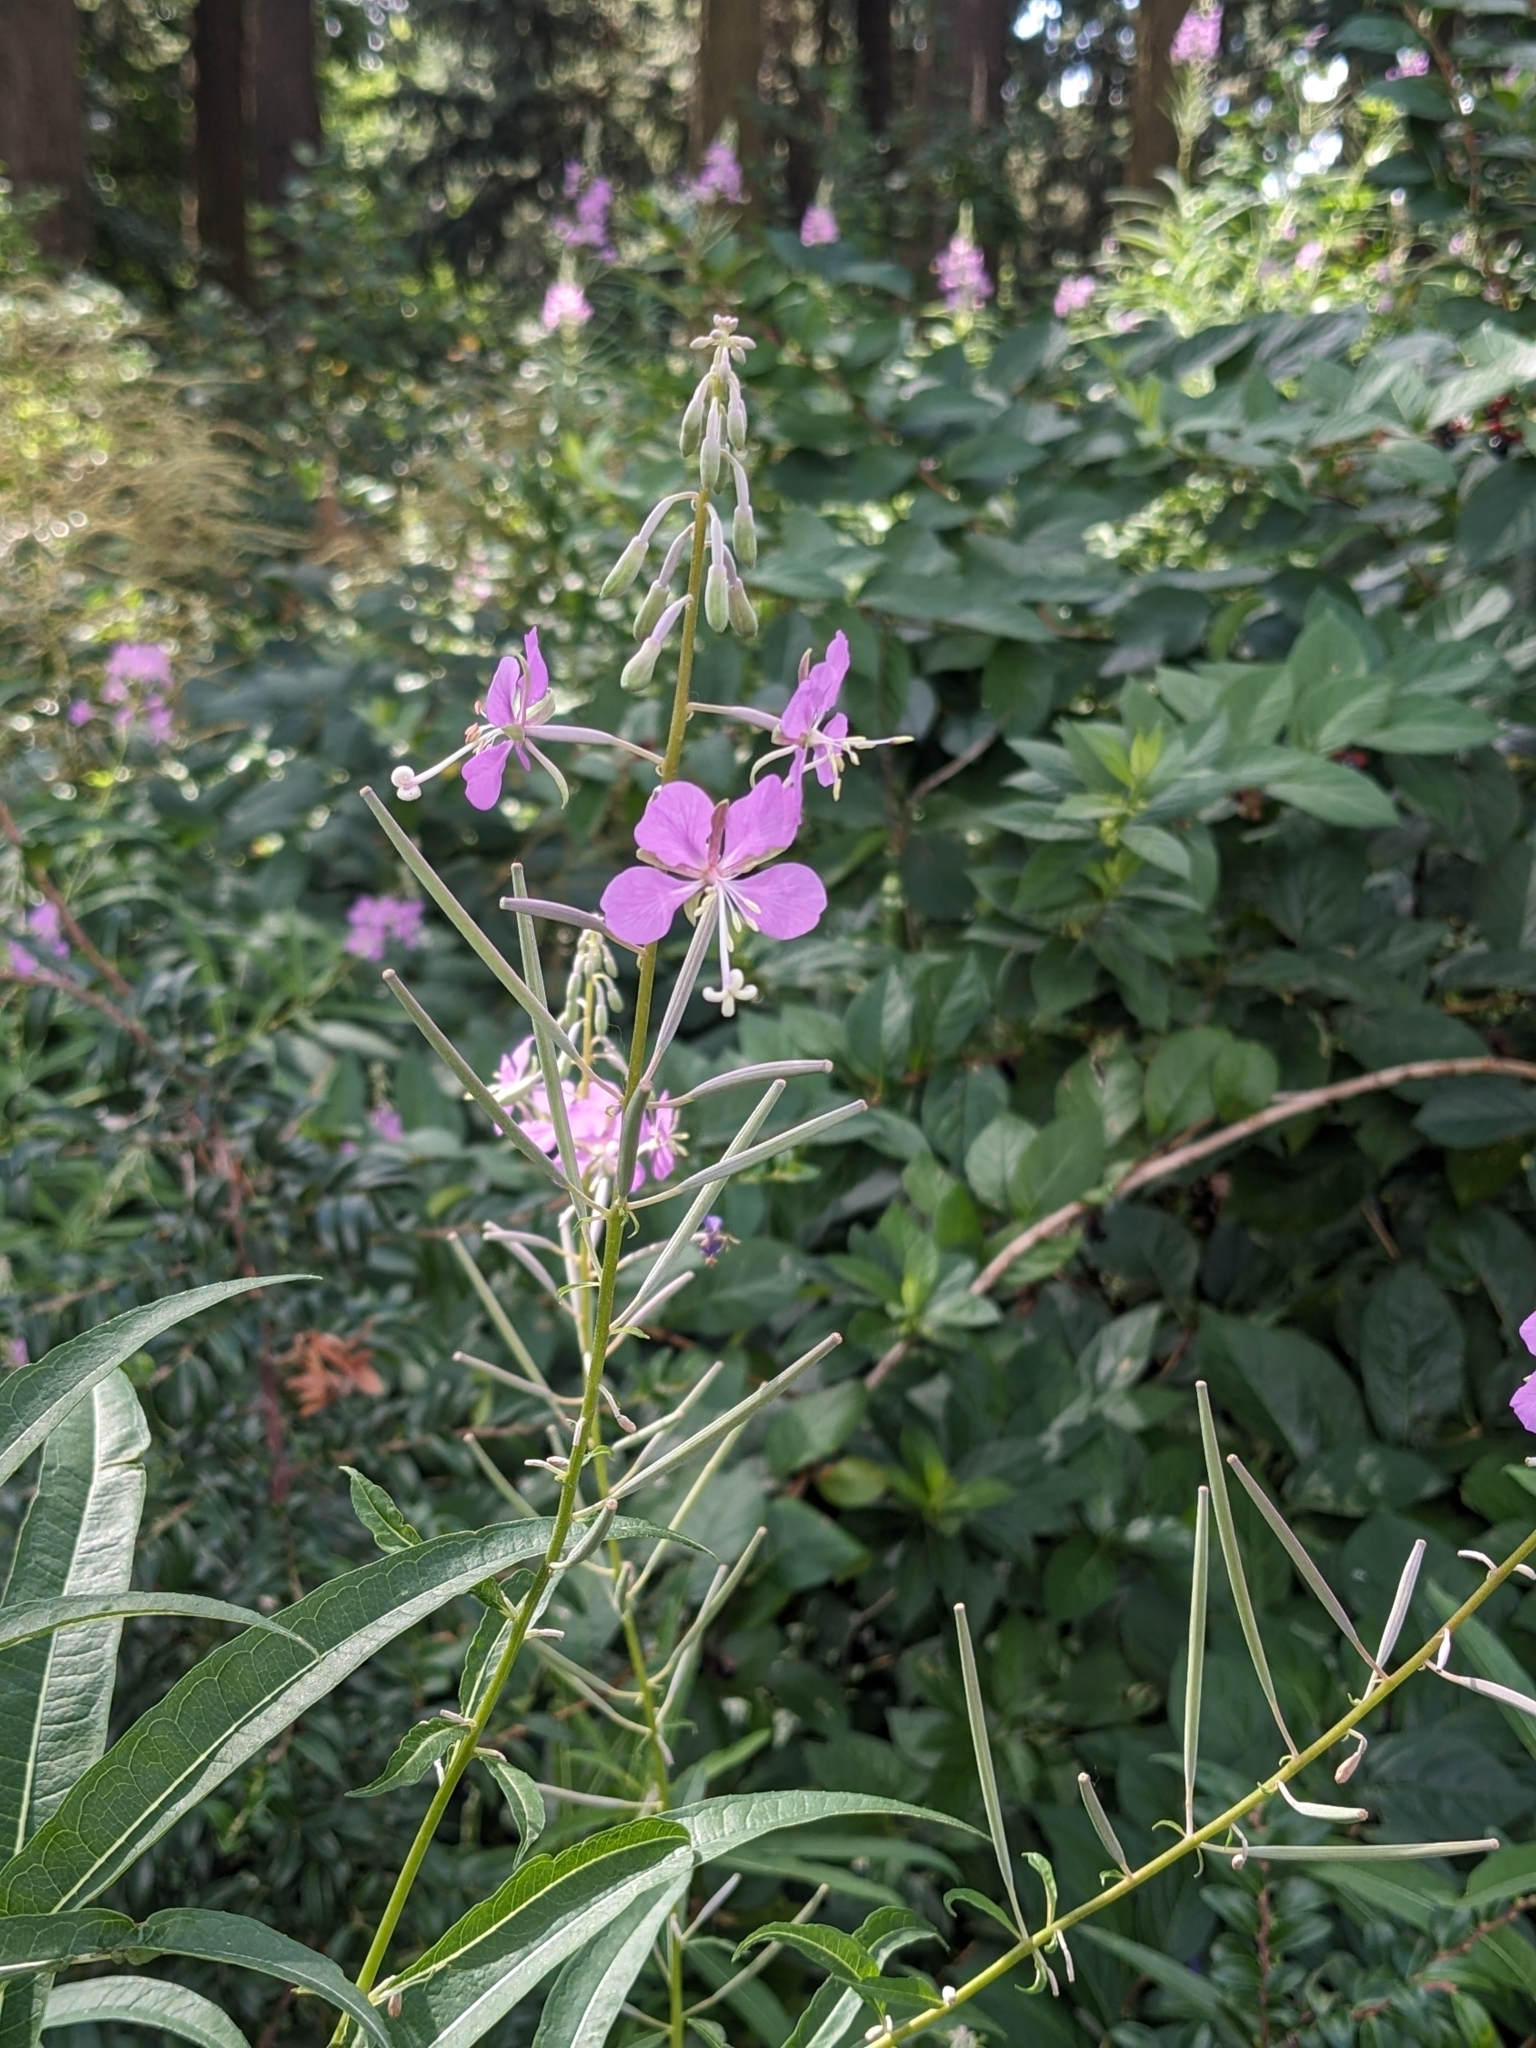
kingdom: Plantae
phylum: Tracheophyta
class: Magnoliopsida
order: Myrtales
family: Onagraceae
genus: Chamaenerion
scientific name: Chamaenerion angustifolium
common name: Fireweed
